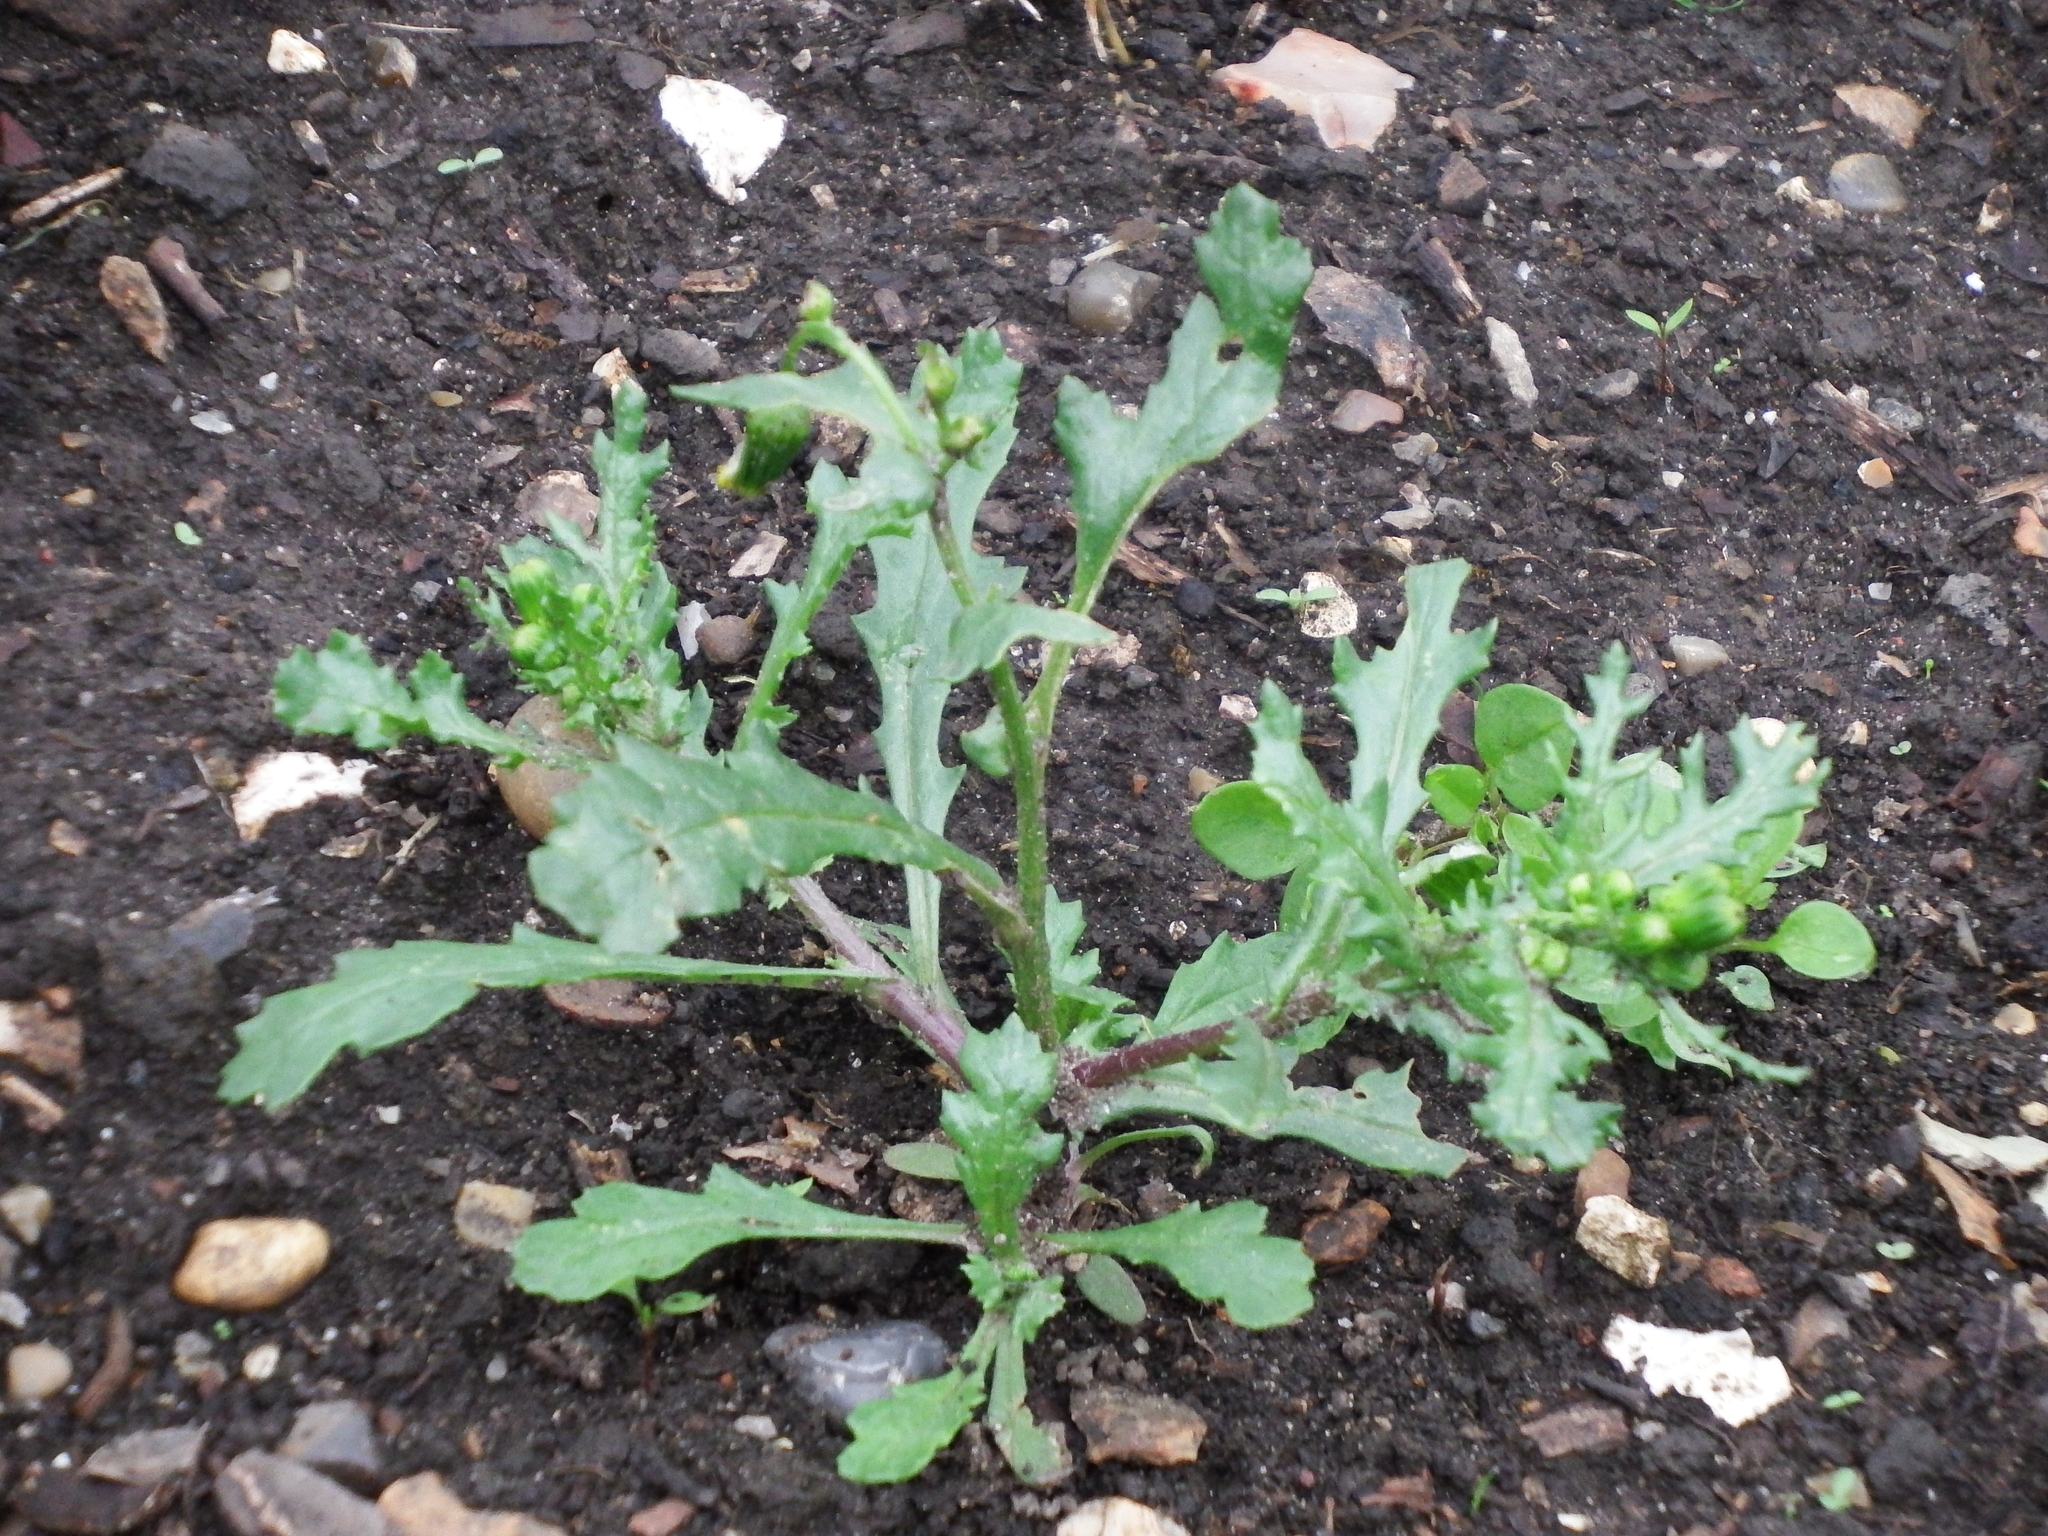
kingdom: Plantae
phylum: Tracheophyta
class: Magnoliopsida
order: Asterales
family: Asteraceae
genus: Senecio
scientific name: Senecio vulgaris
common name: Old-man-in-the-spring
